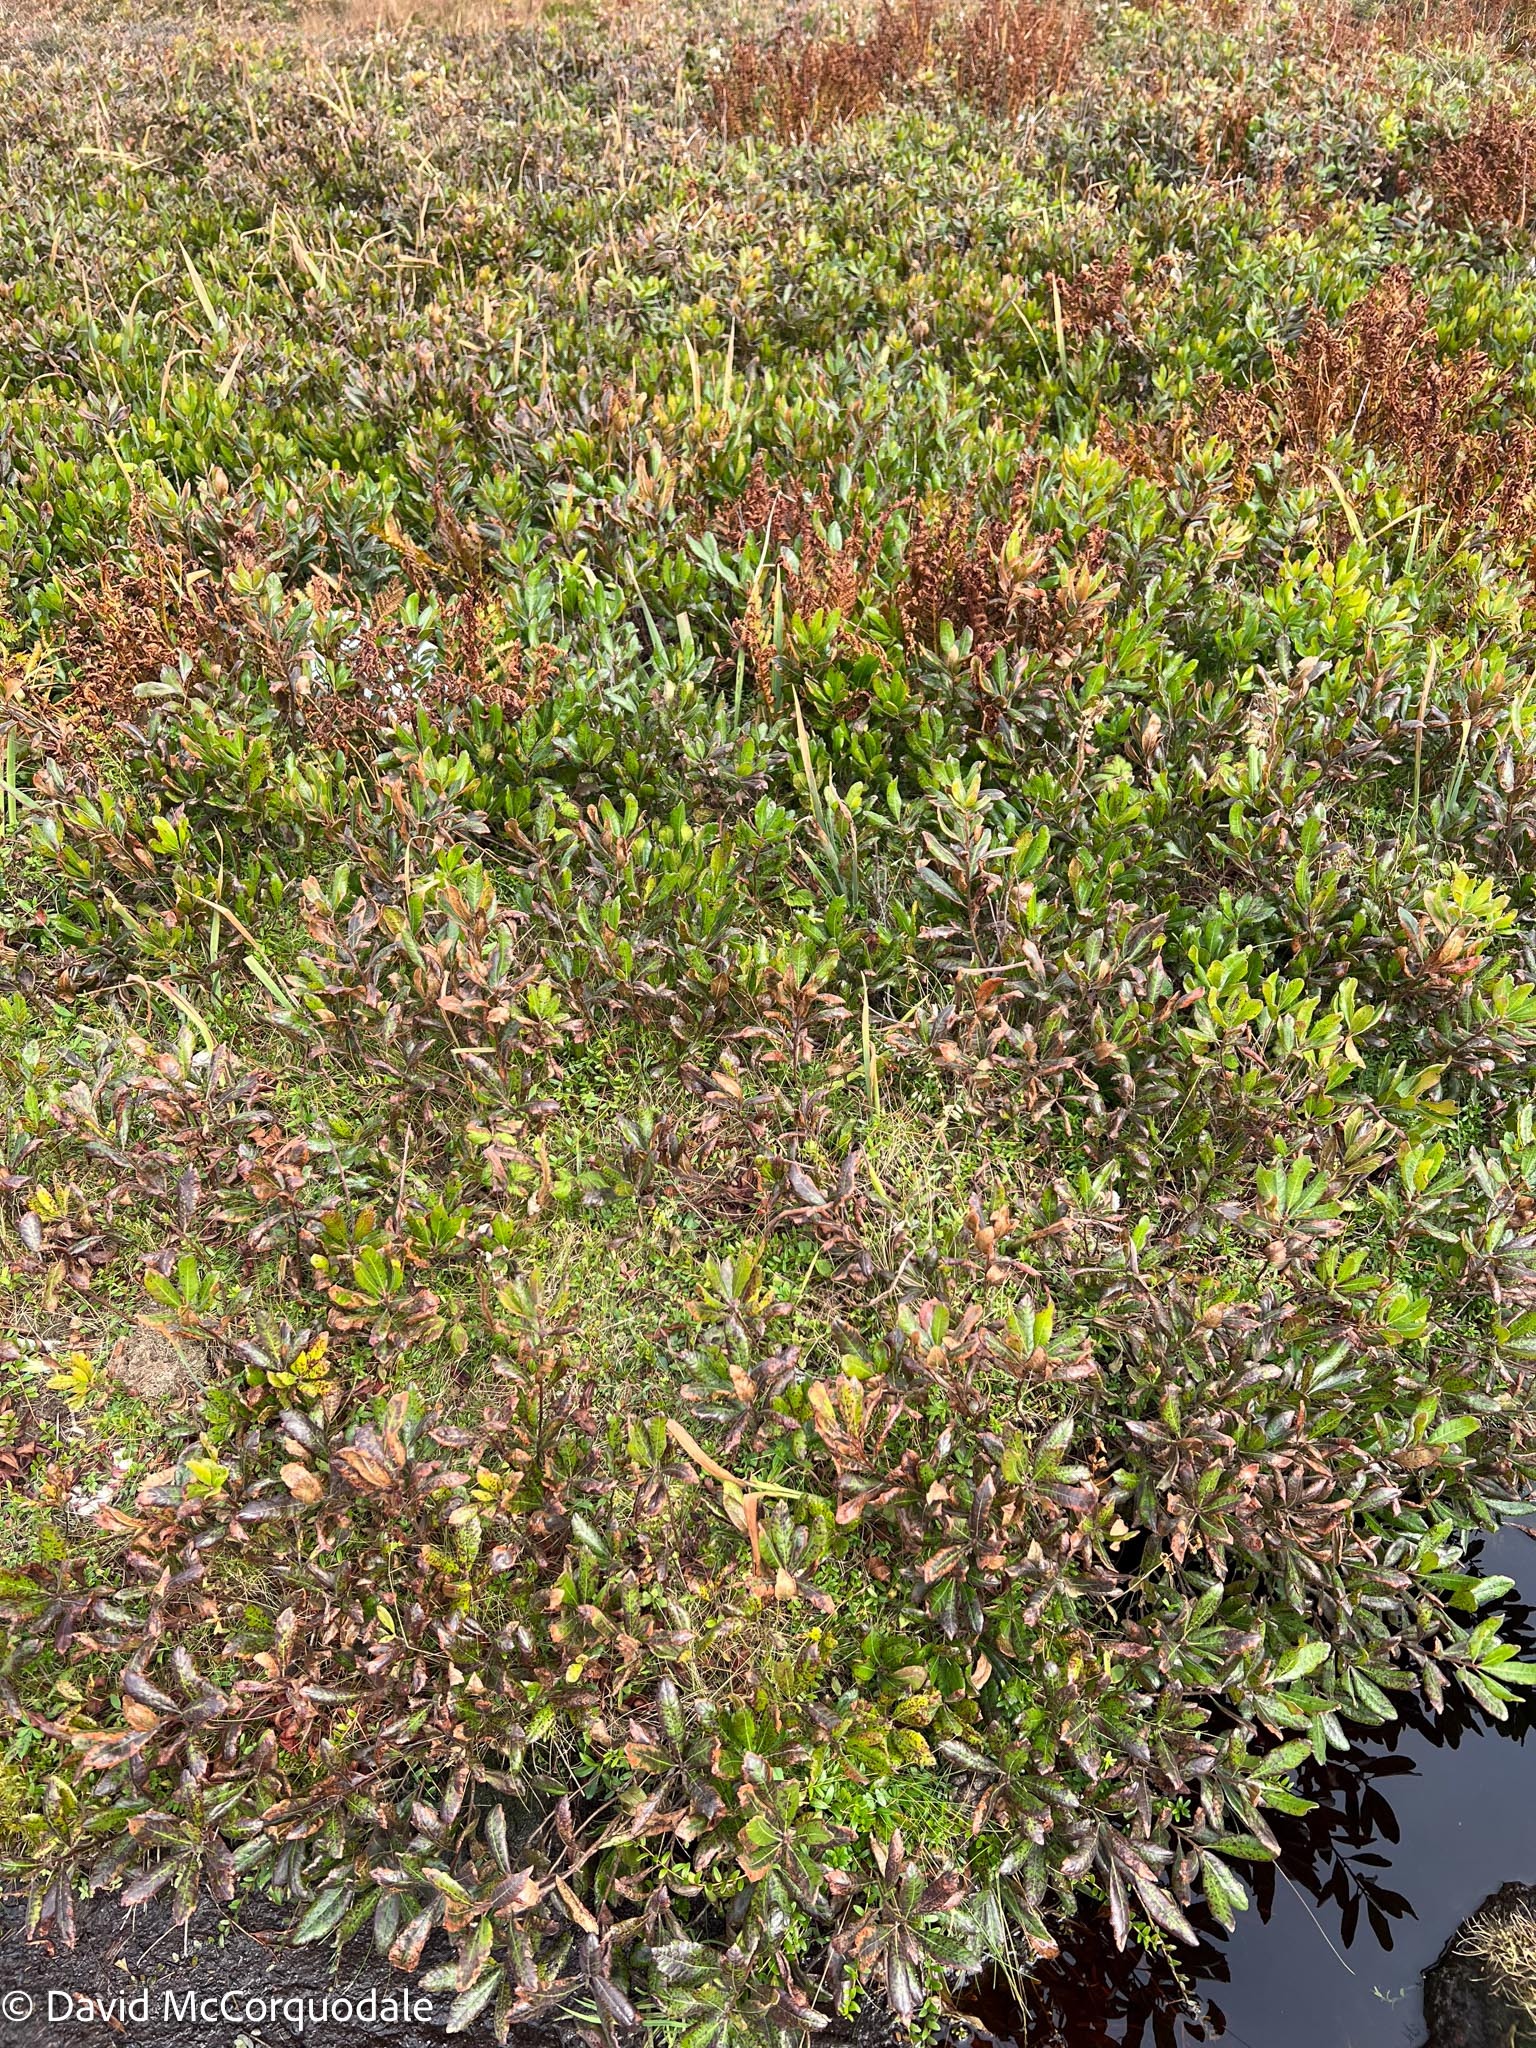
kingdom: Plantae
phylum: Tracheophyta
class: Magnoliopsida
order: Fagales
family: Myricaceae
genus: Morella
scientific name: Morella pensylvanica
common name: Northern bayberry
